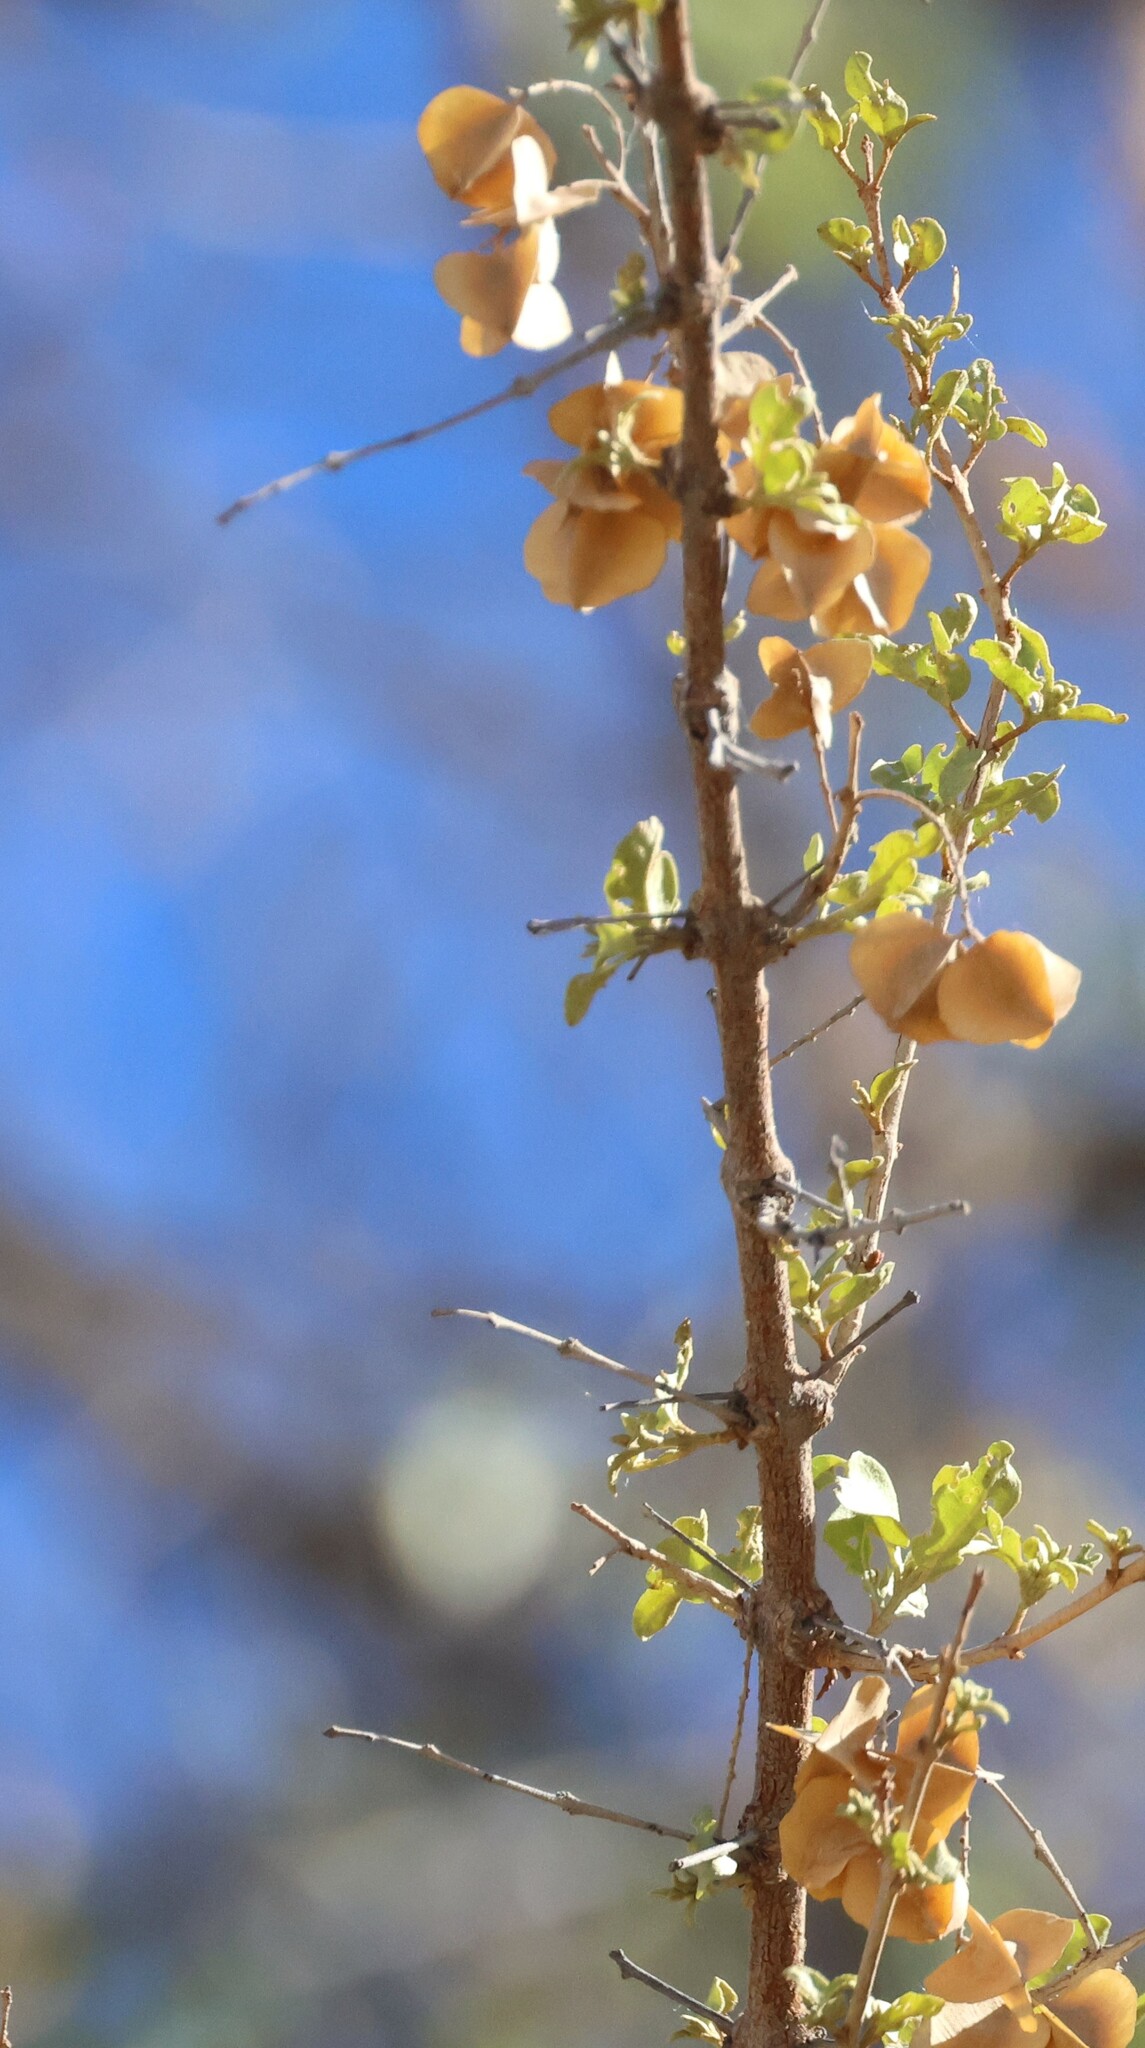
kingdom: Plantae
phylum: Tracheophyta
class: Magnoliopsida
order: Myrtales
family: Combretaceae
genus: Combretum
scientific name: Combretum imberbe
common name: Leadwood
